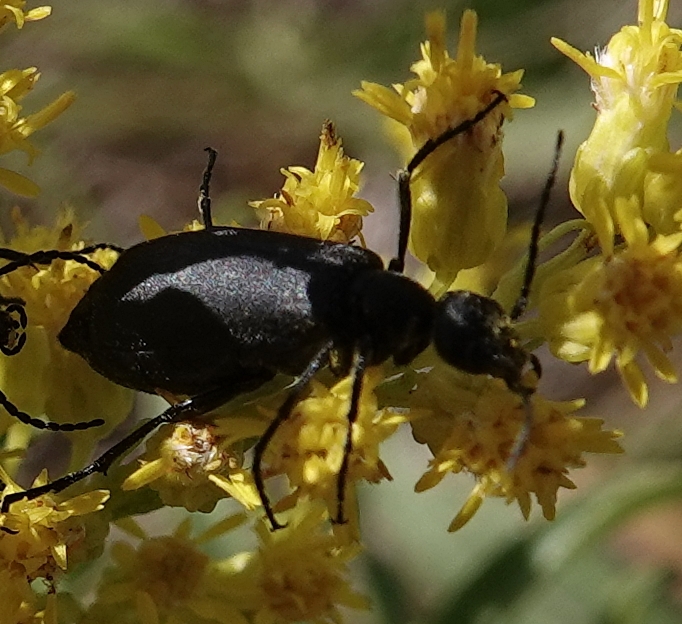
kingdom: Animalia
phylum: Arthropoda
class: Insecta
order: Coleoptera
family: Meloidae
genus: Epicauta
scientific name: Epicauta pensylvanica
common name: Black blister beetle
